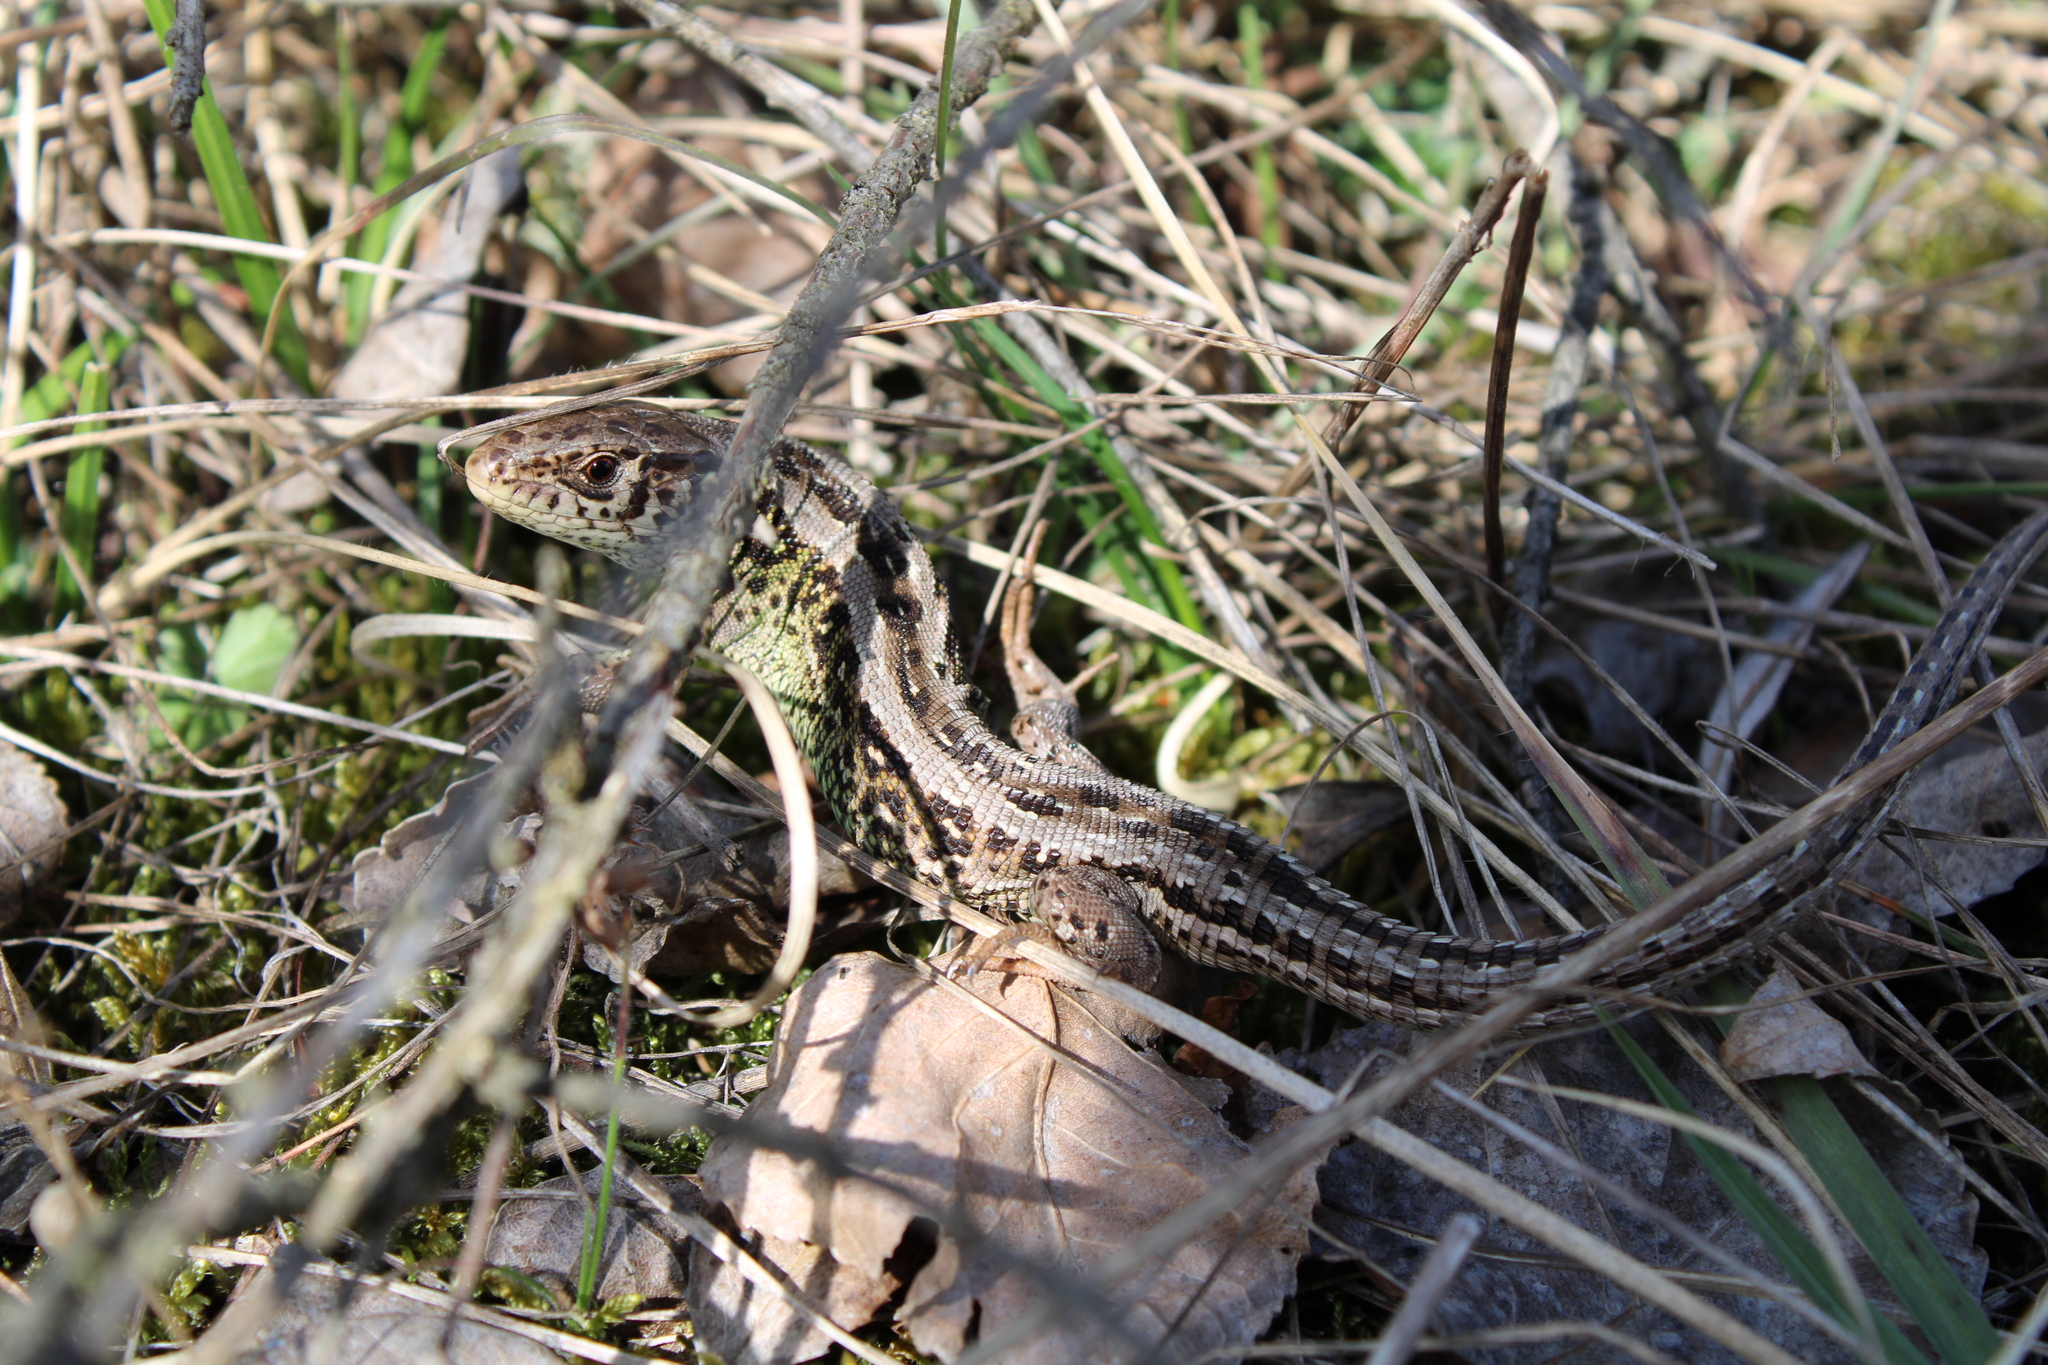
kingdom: Animalia
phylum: Chordata
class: Squamata
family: Lacertidae
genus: Lacerta
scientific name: Lacerta agilis
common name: Sand lizard
